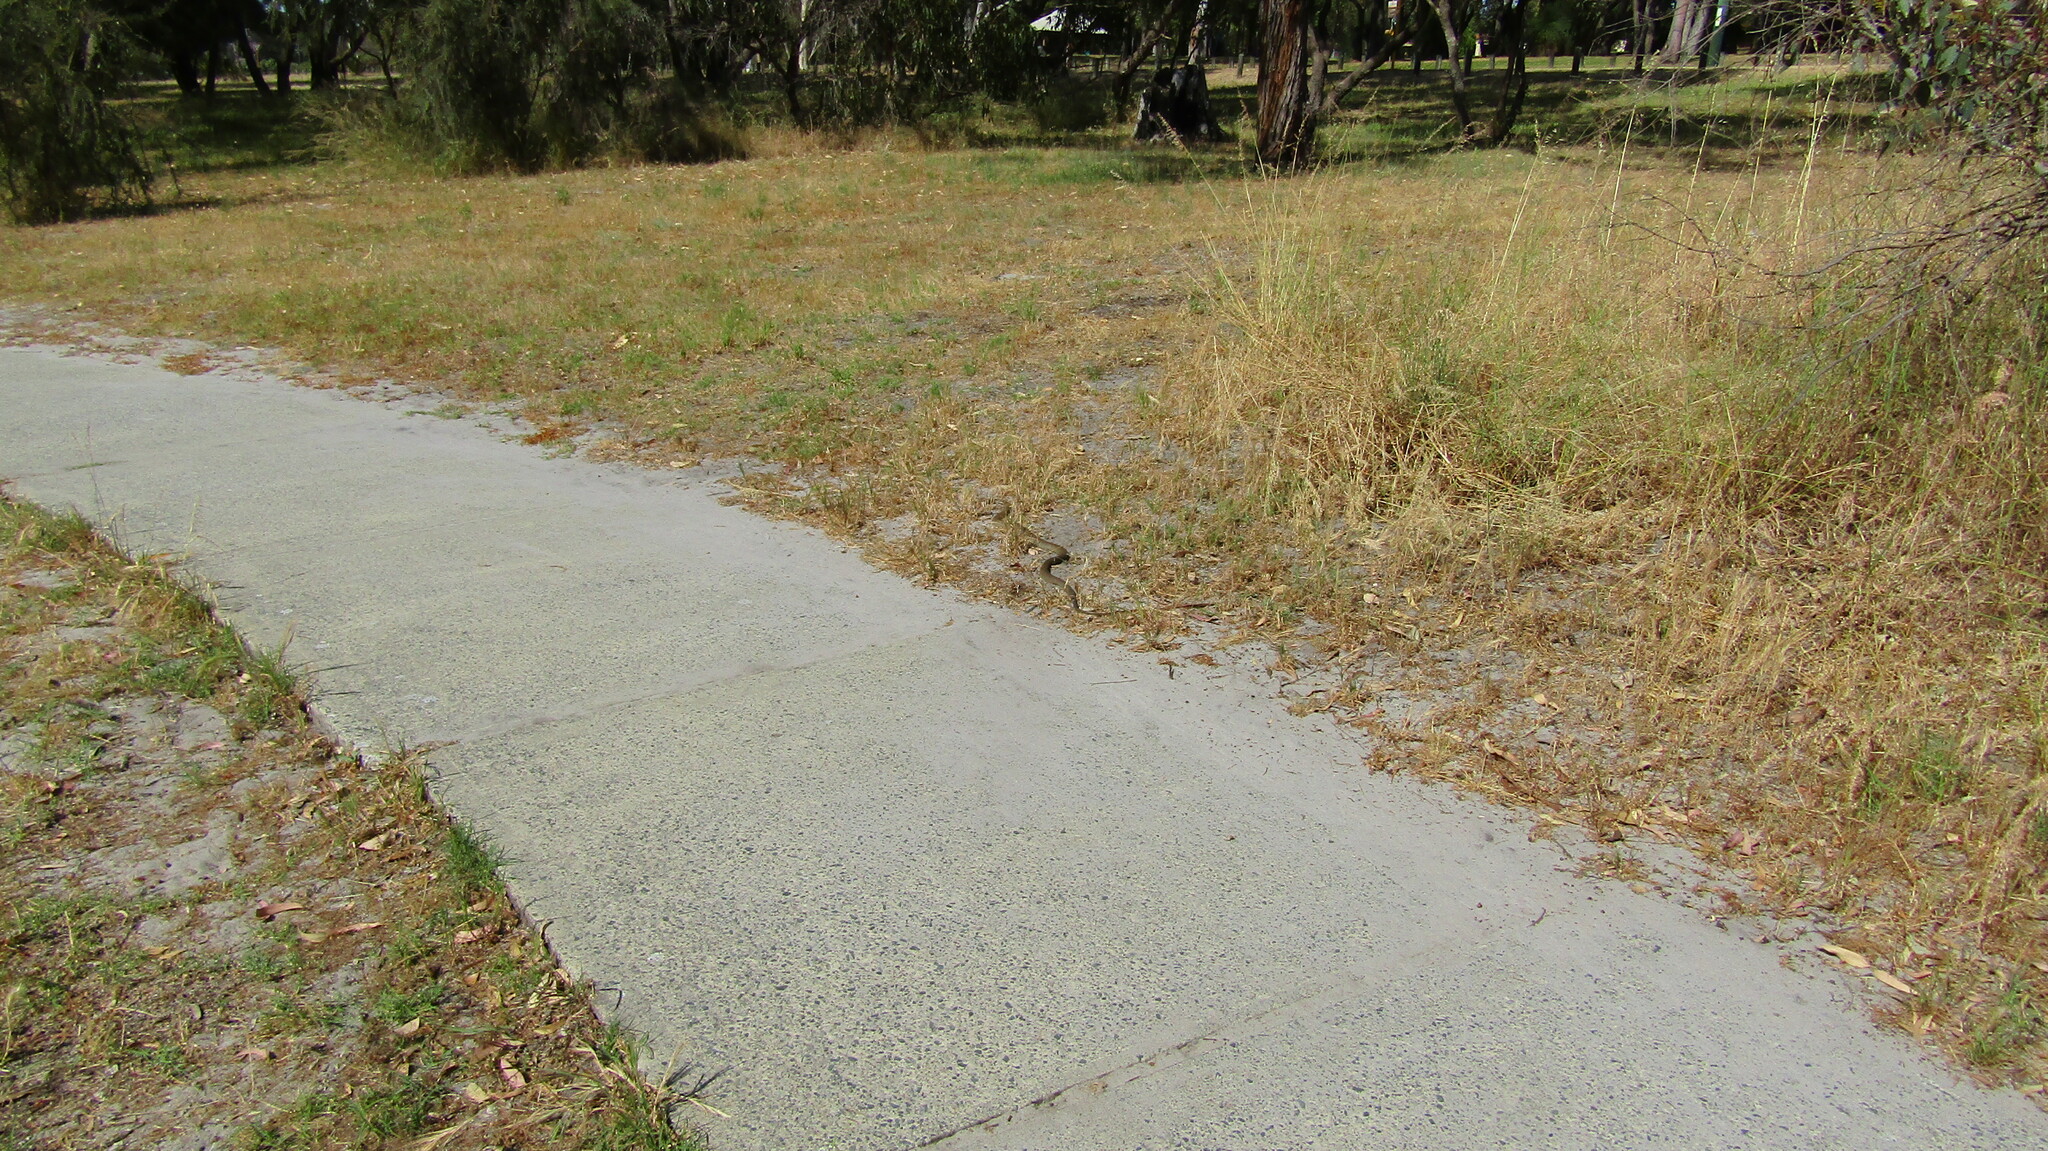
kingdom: Animalia
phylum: Chordata
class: Squamata
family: Elapidae
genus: Pseudonaja
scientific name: Pseudonaja affinis
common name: Dugite
